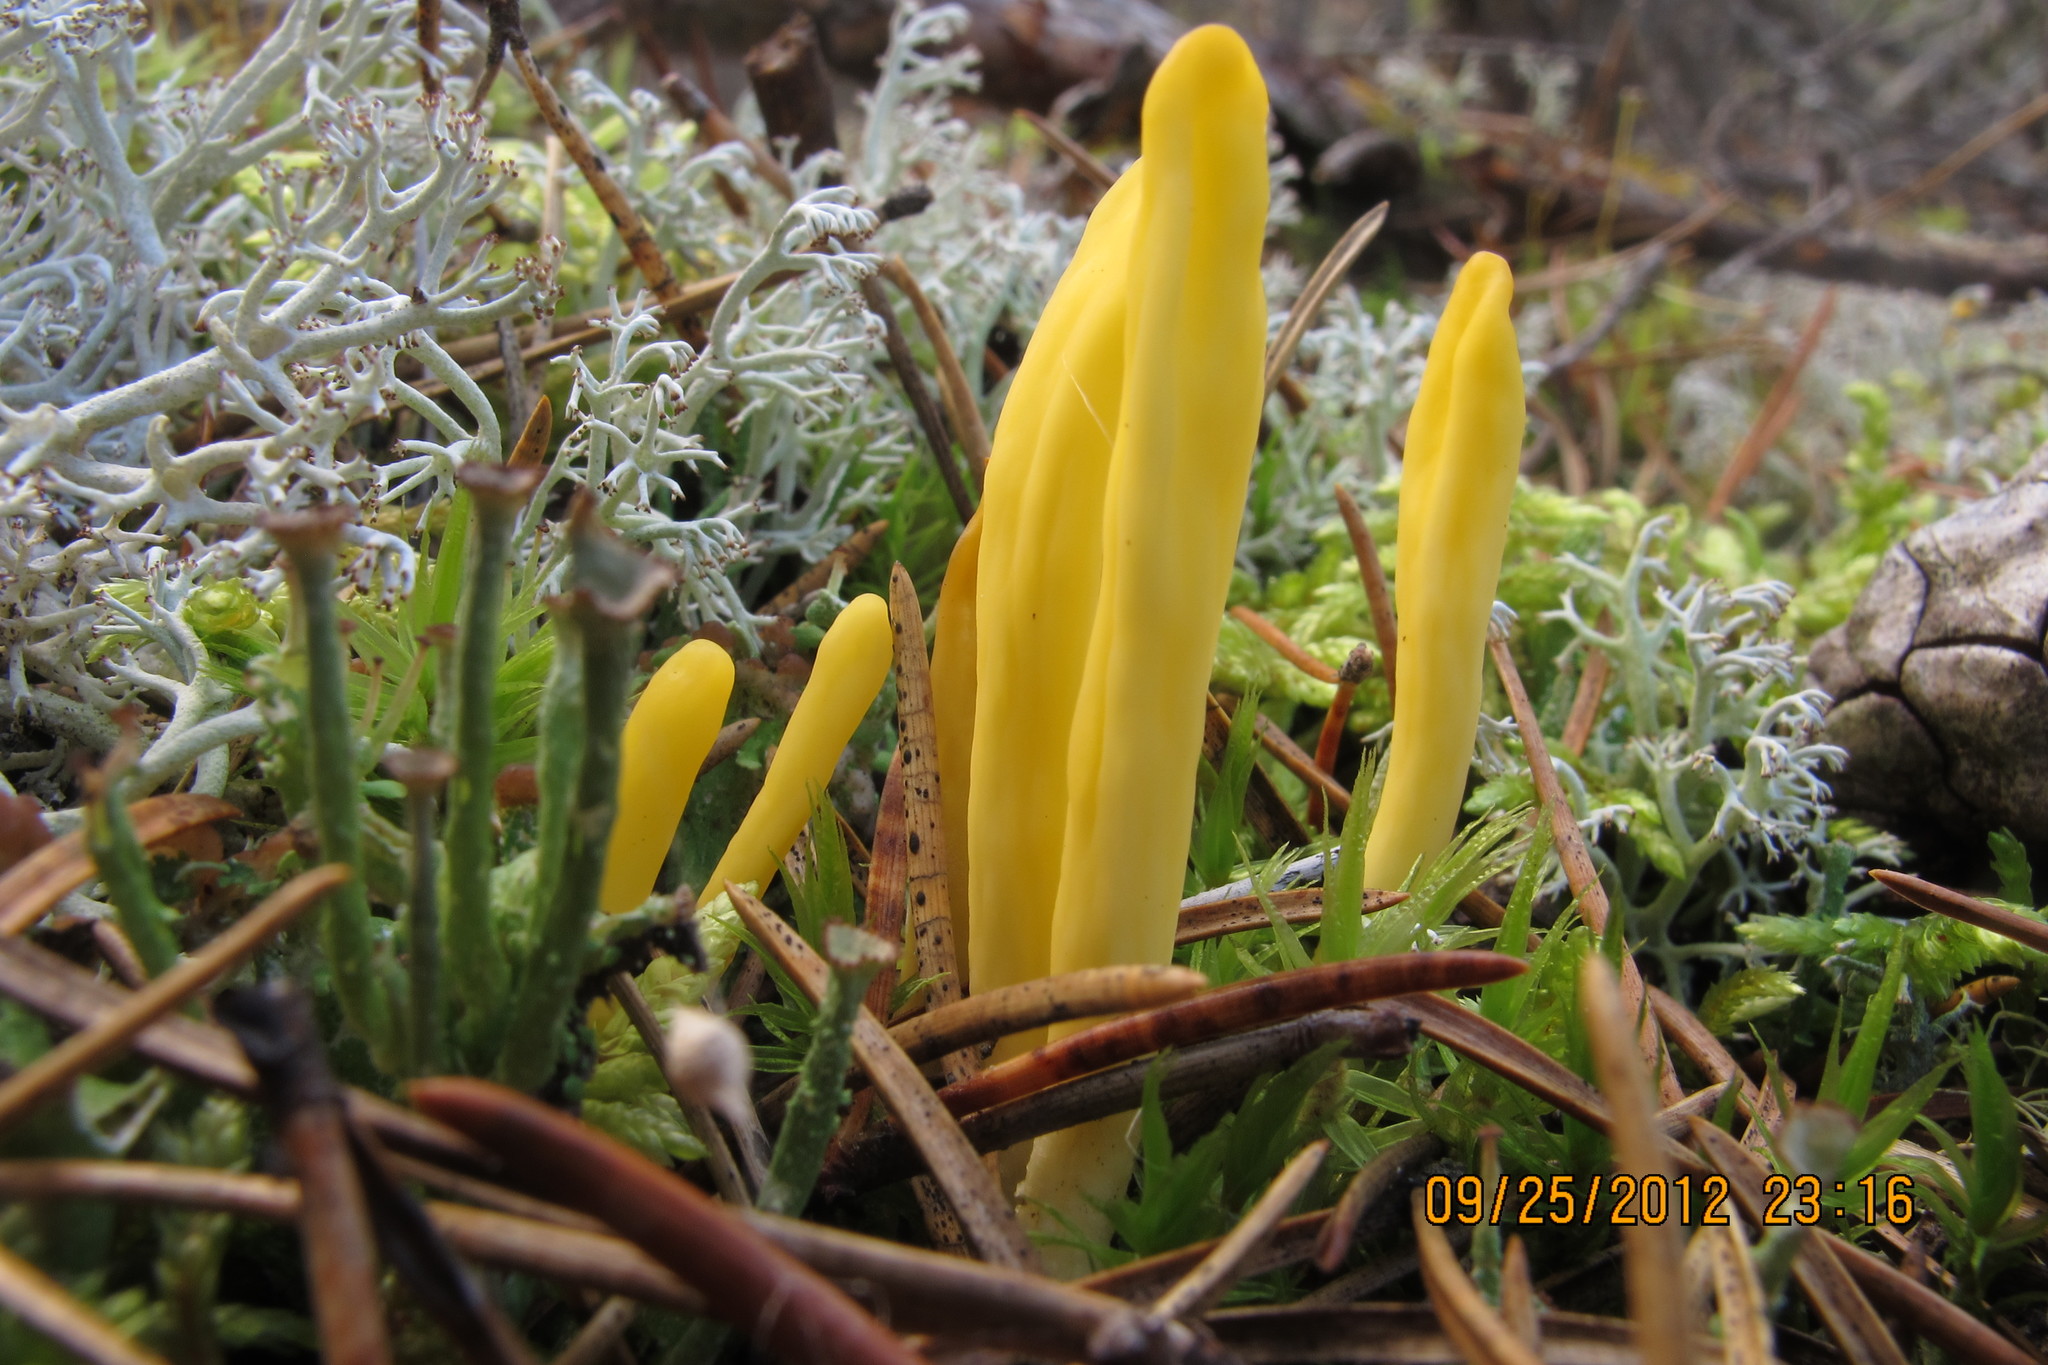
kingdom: Fungi
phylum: Ascomycota
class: Neolectomycetes
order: Neolectales
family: Neolectaceae
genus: Neolecta
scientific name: Neolecta vitellina
